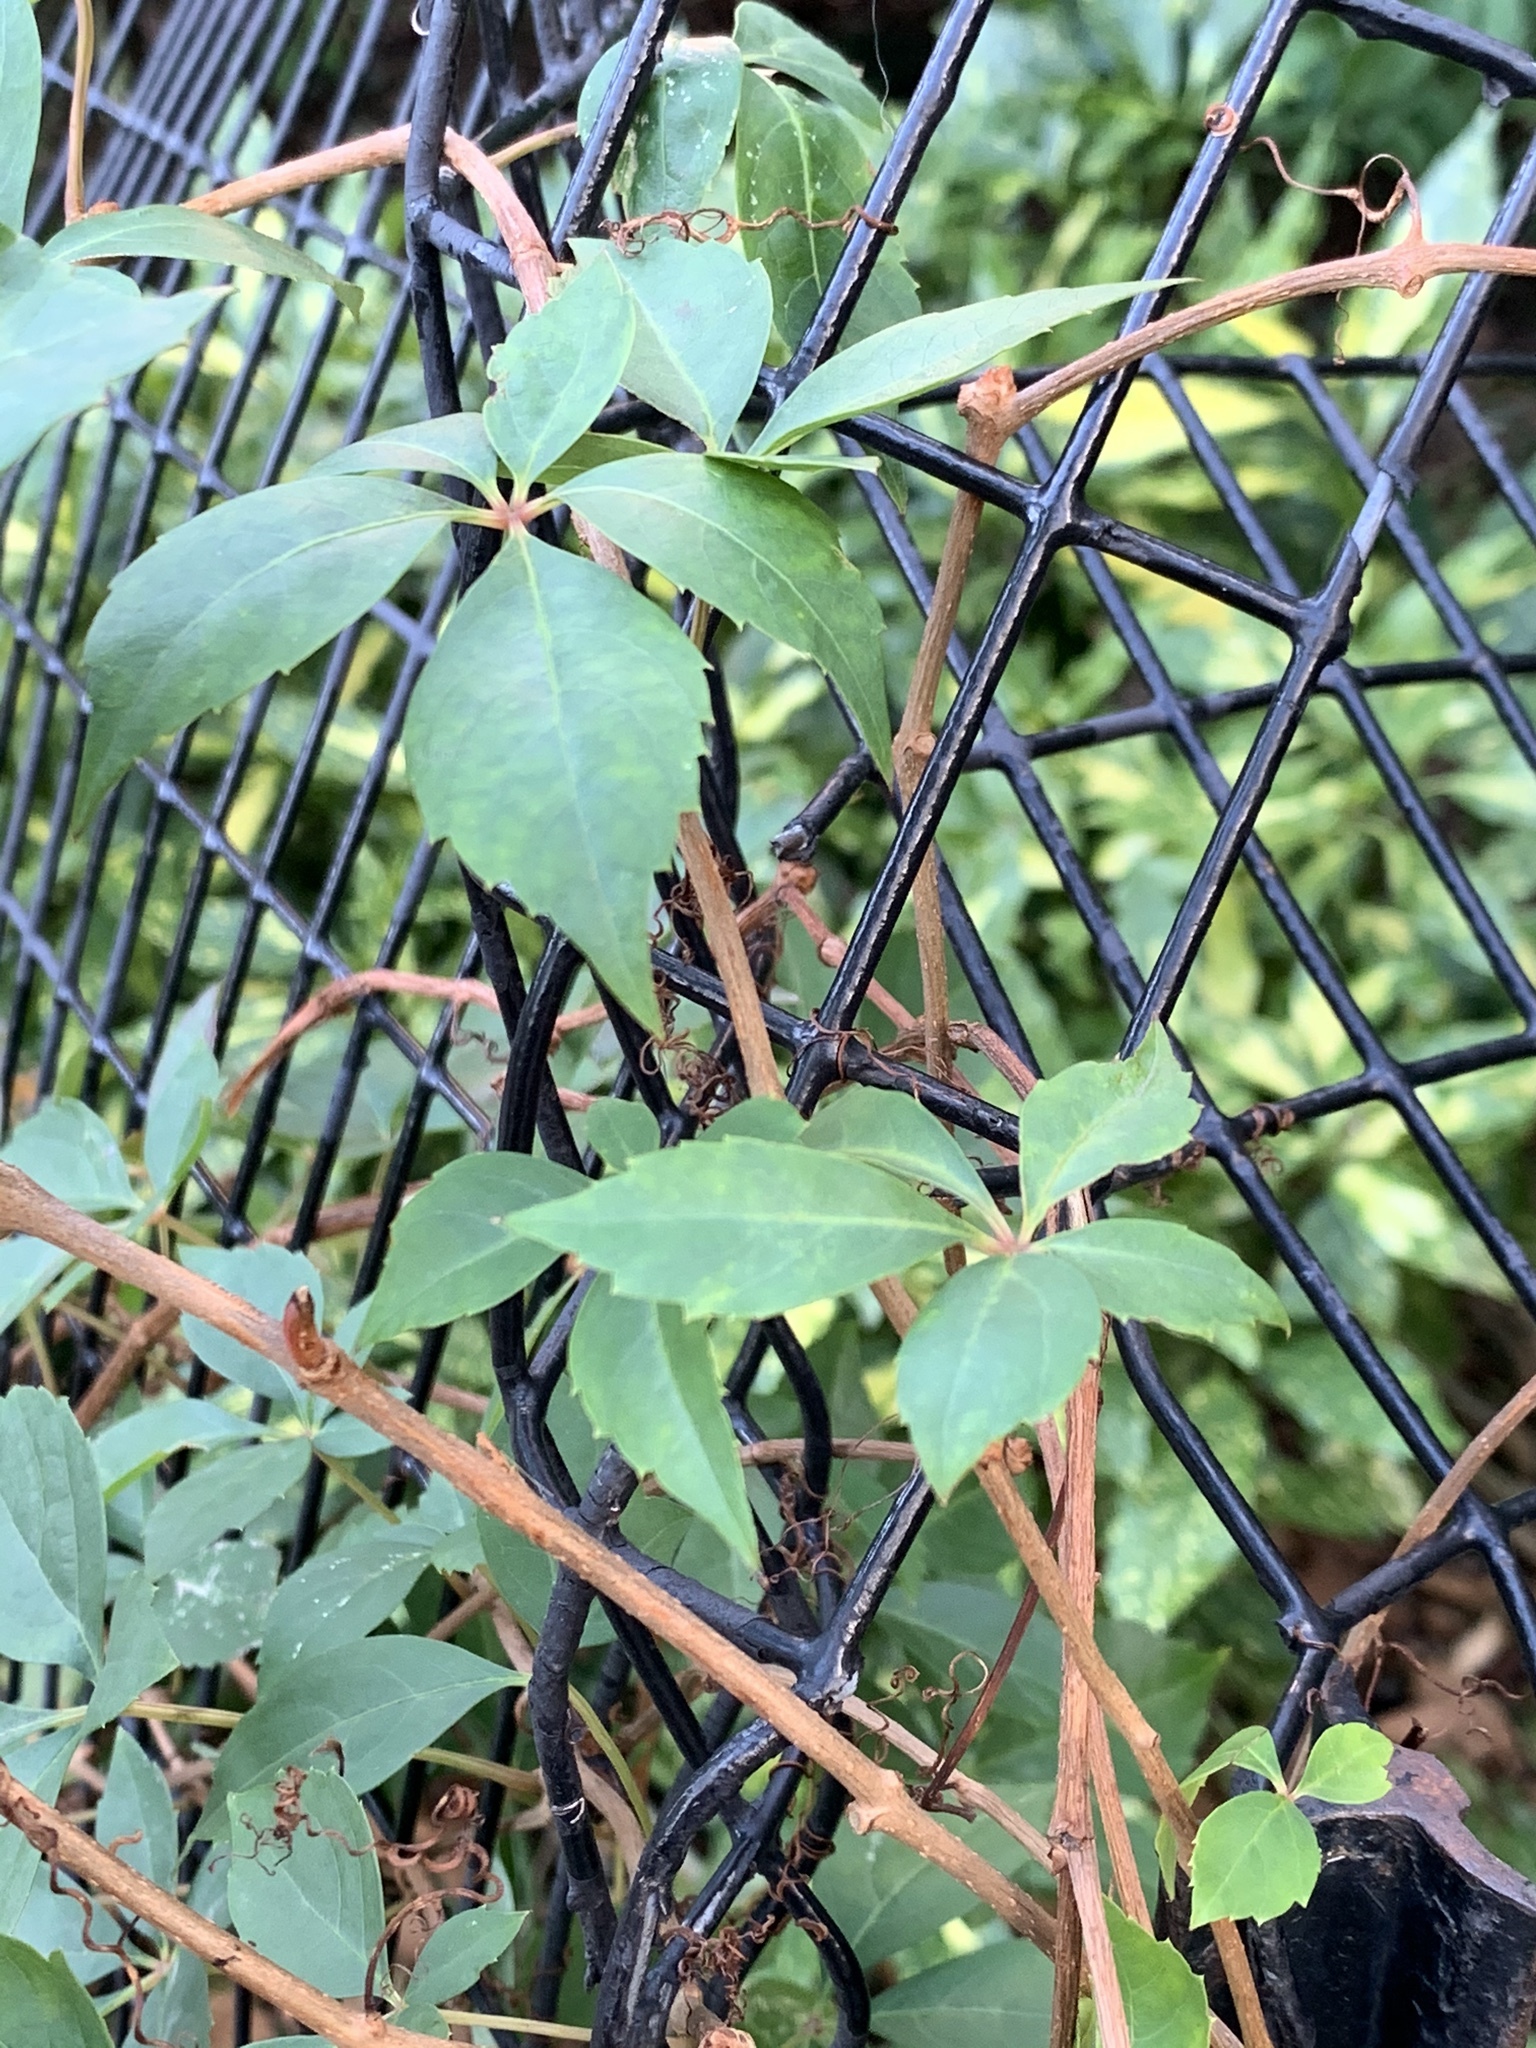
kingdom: Plantae
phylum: Tracheophyta
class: Magnoliopsida
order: Vitales
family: Vitaceae
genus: Parthenocissus
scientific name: Parthenocissus quinquefolia
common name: Virginia-creeper
